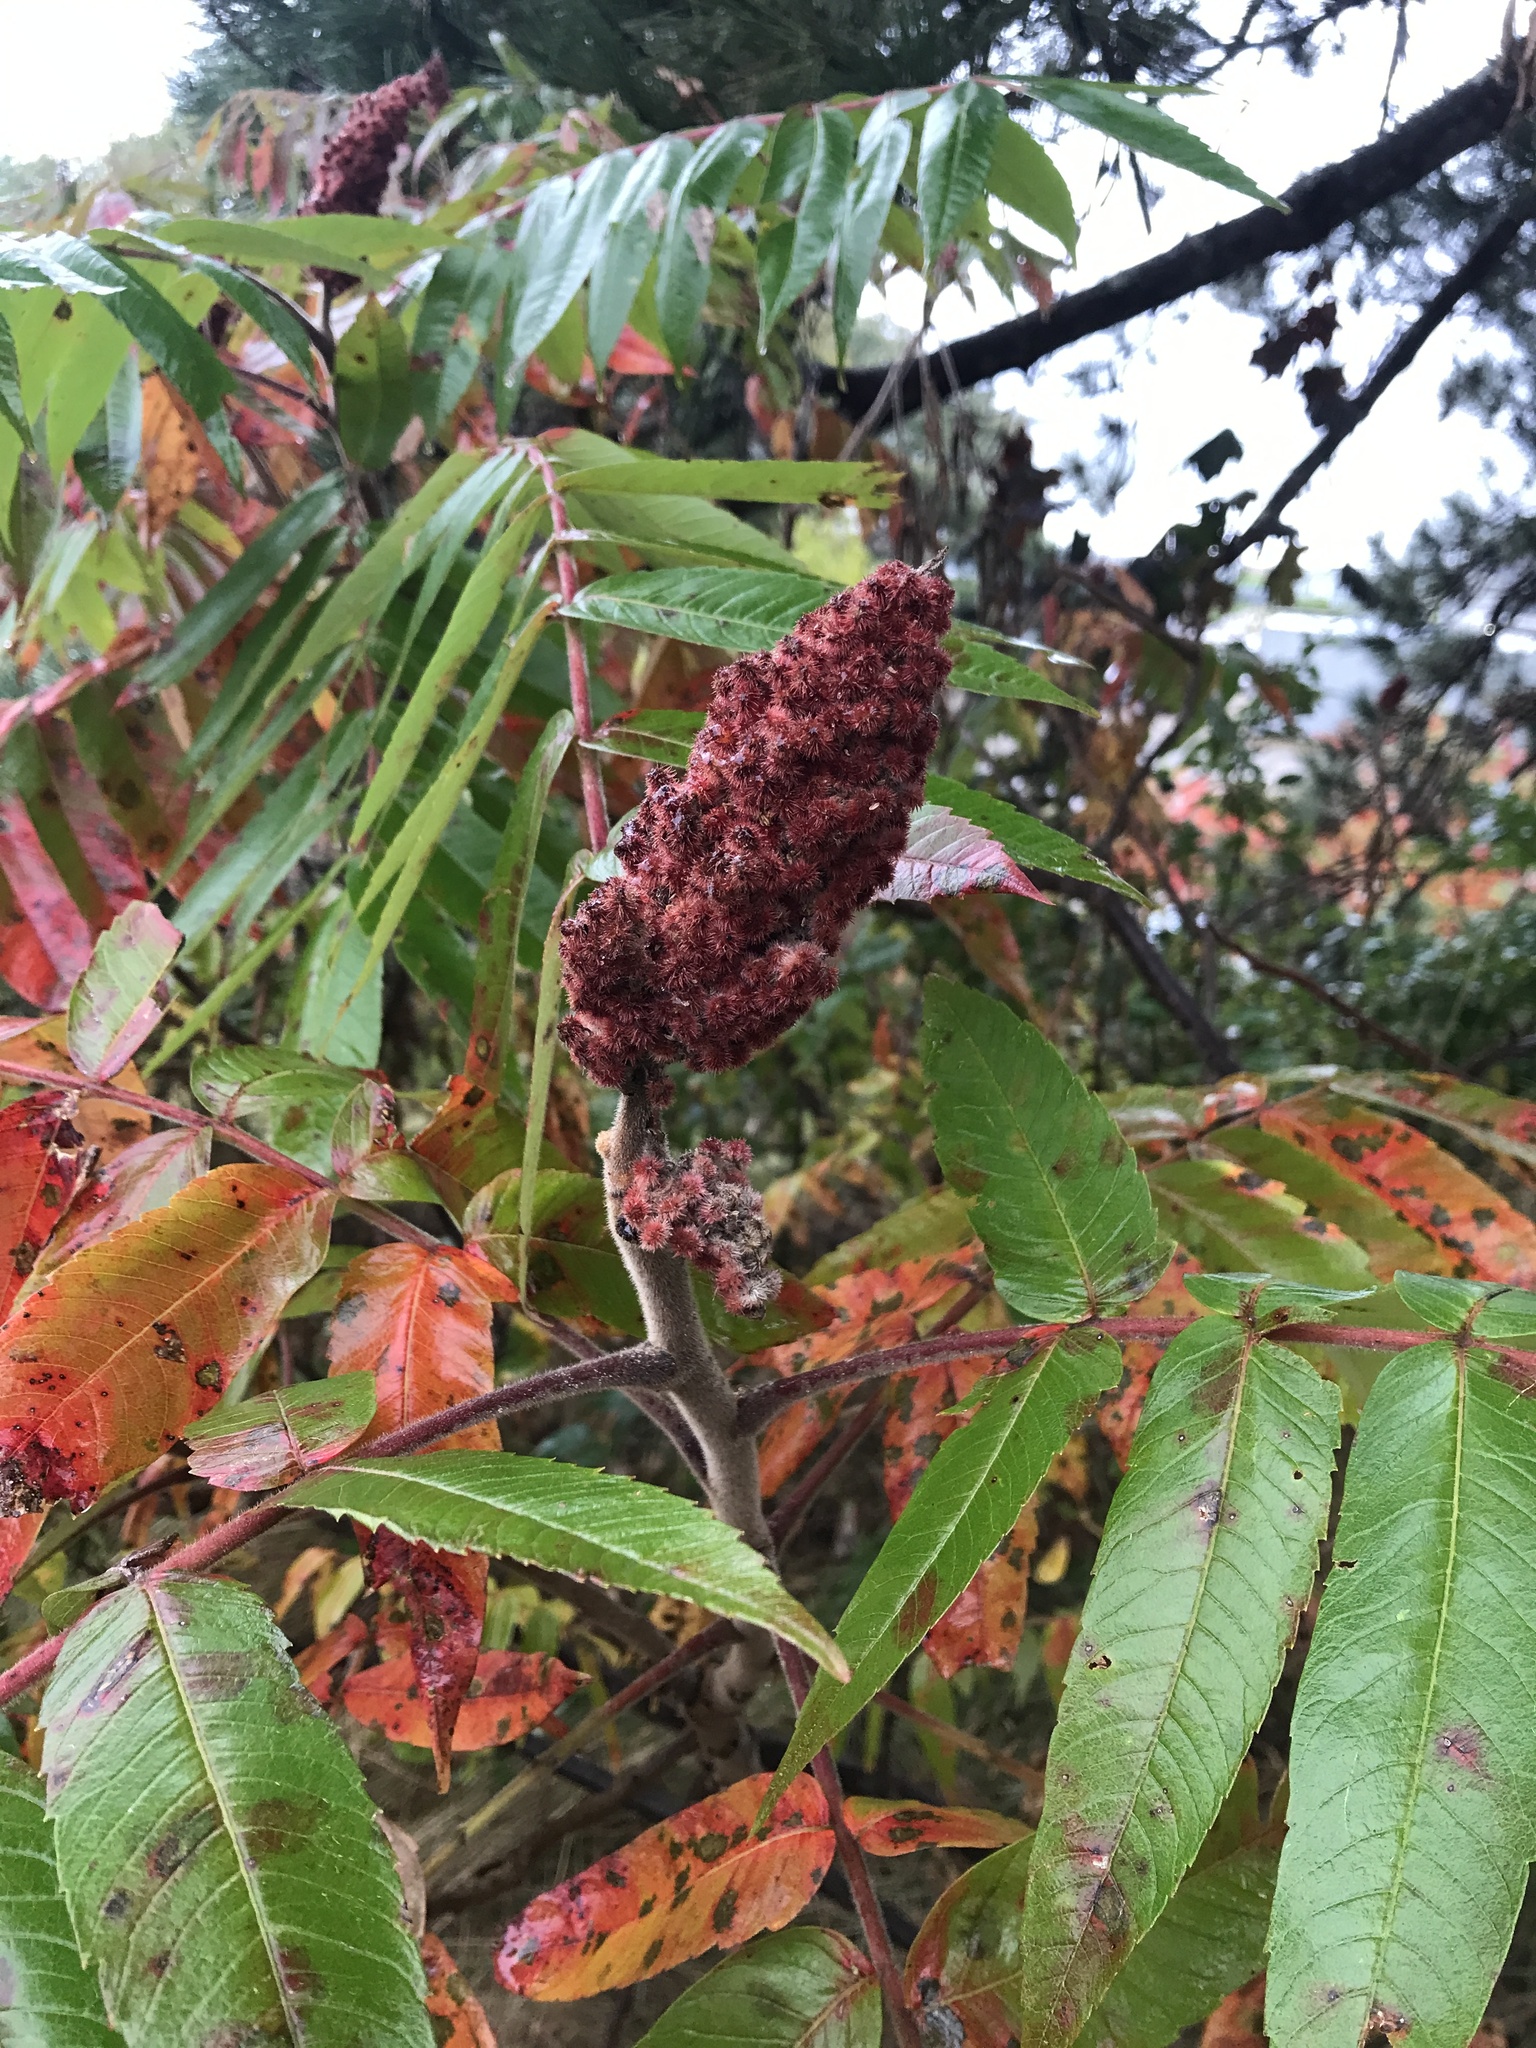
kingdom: Plantae
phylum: Tracheophyta
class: Magnoliopsida
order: Sapindales
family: Anacardiaceae
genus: Rhus
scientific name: Rhus typhina
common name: Staghorn sumac
